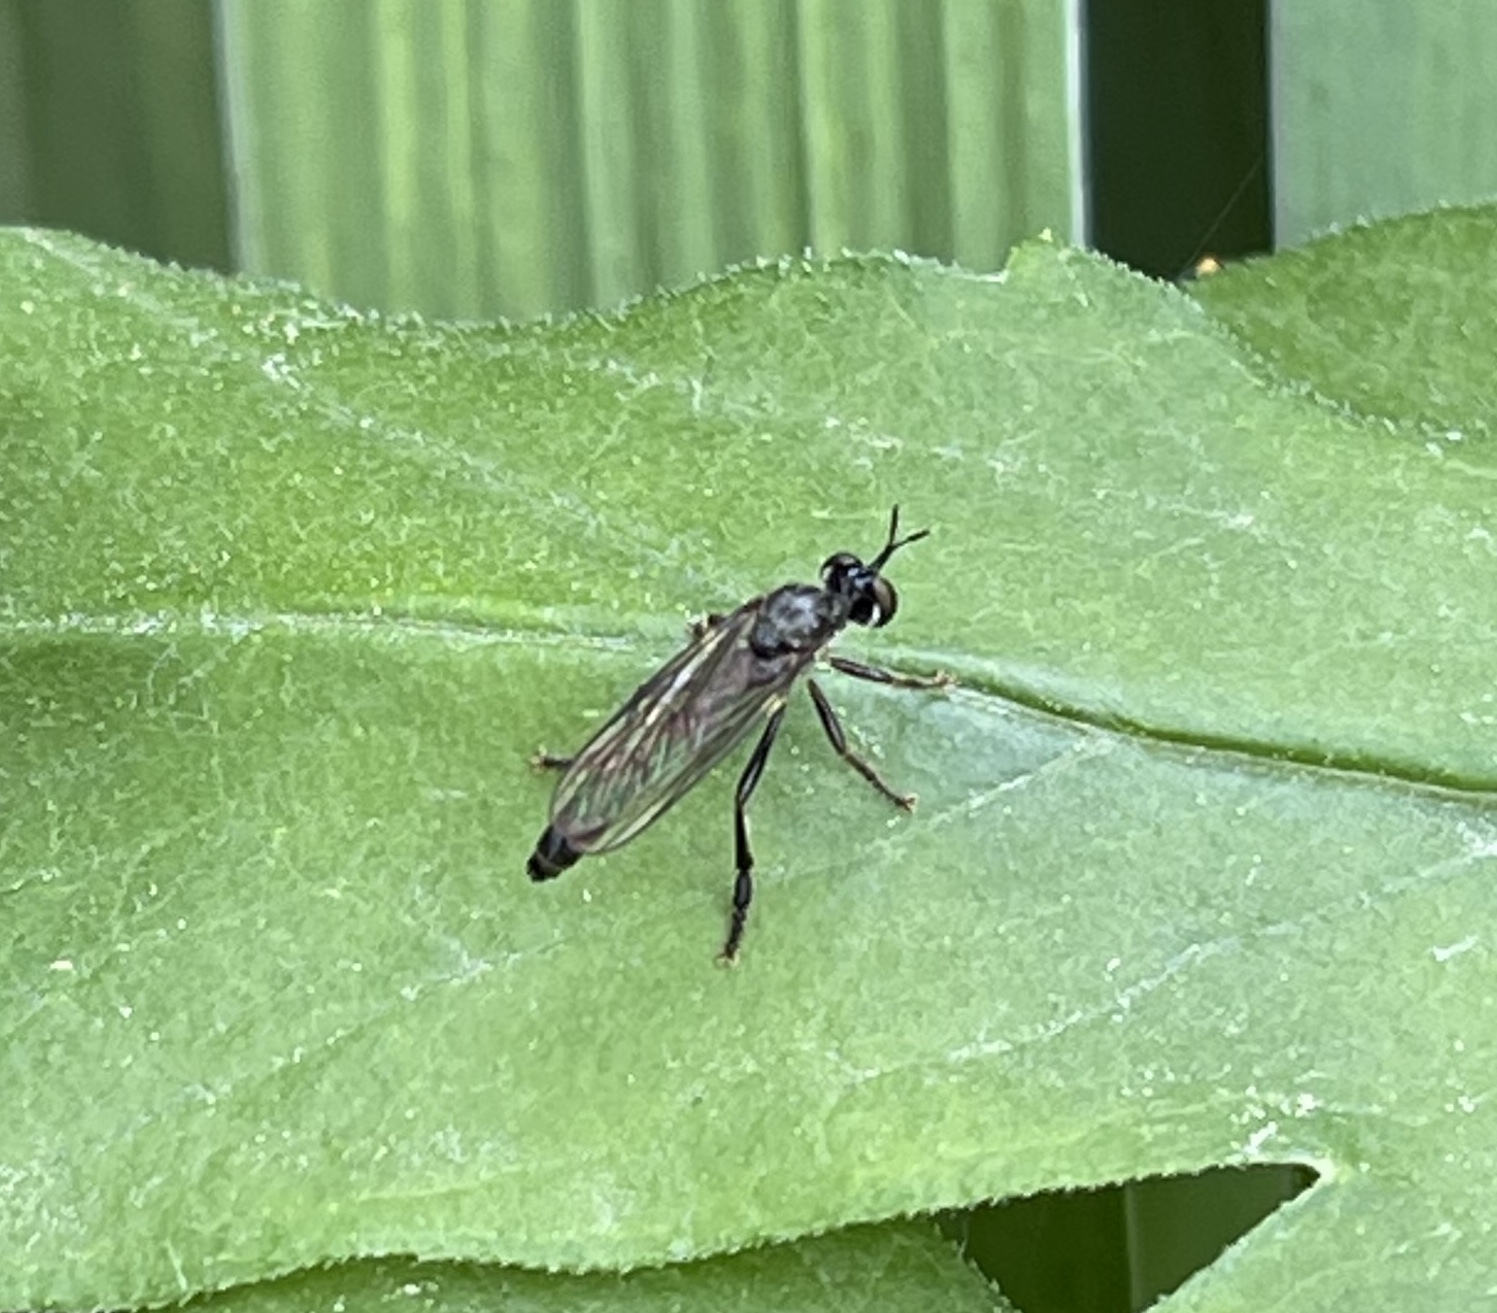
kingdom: Animalia
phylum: Arthropoda
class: Insecta
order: Diptera
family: Asilidae
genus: Dioctria
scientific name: Dioctria hyalipennis
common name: Stripe-legged robberfly
